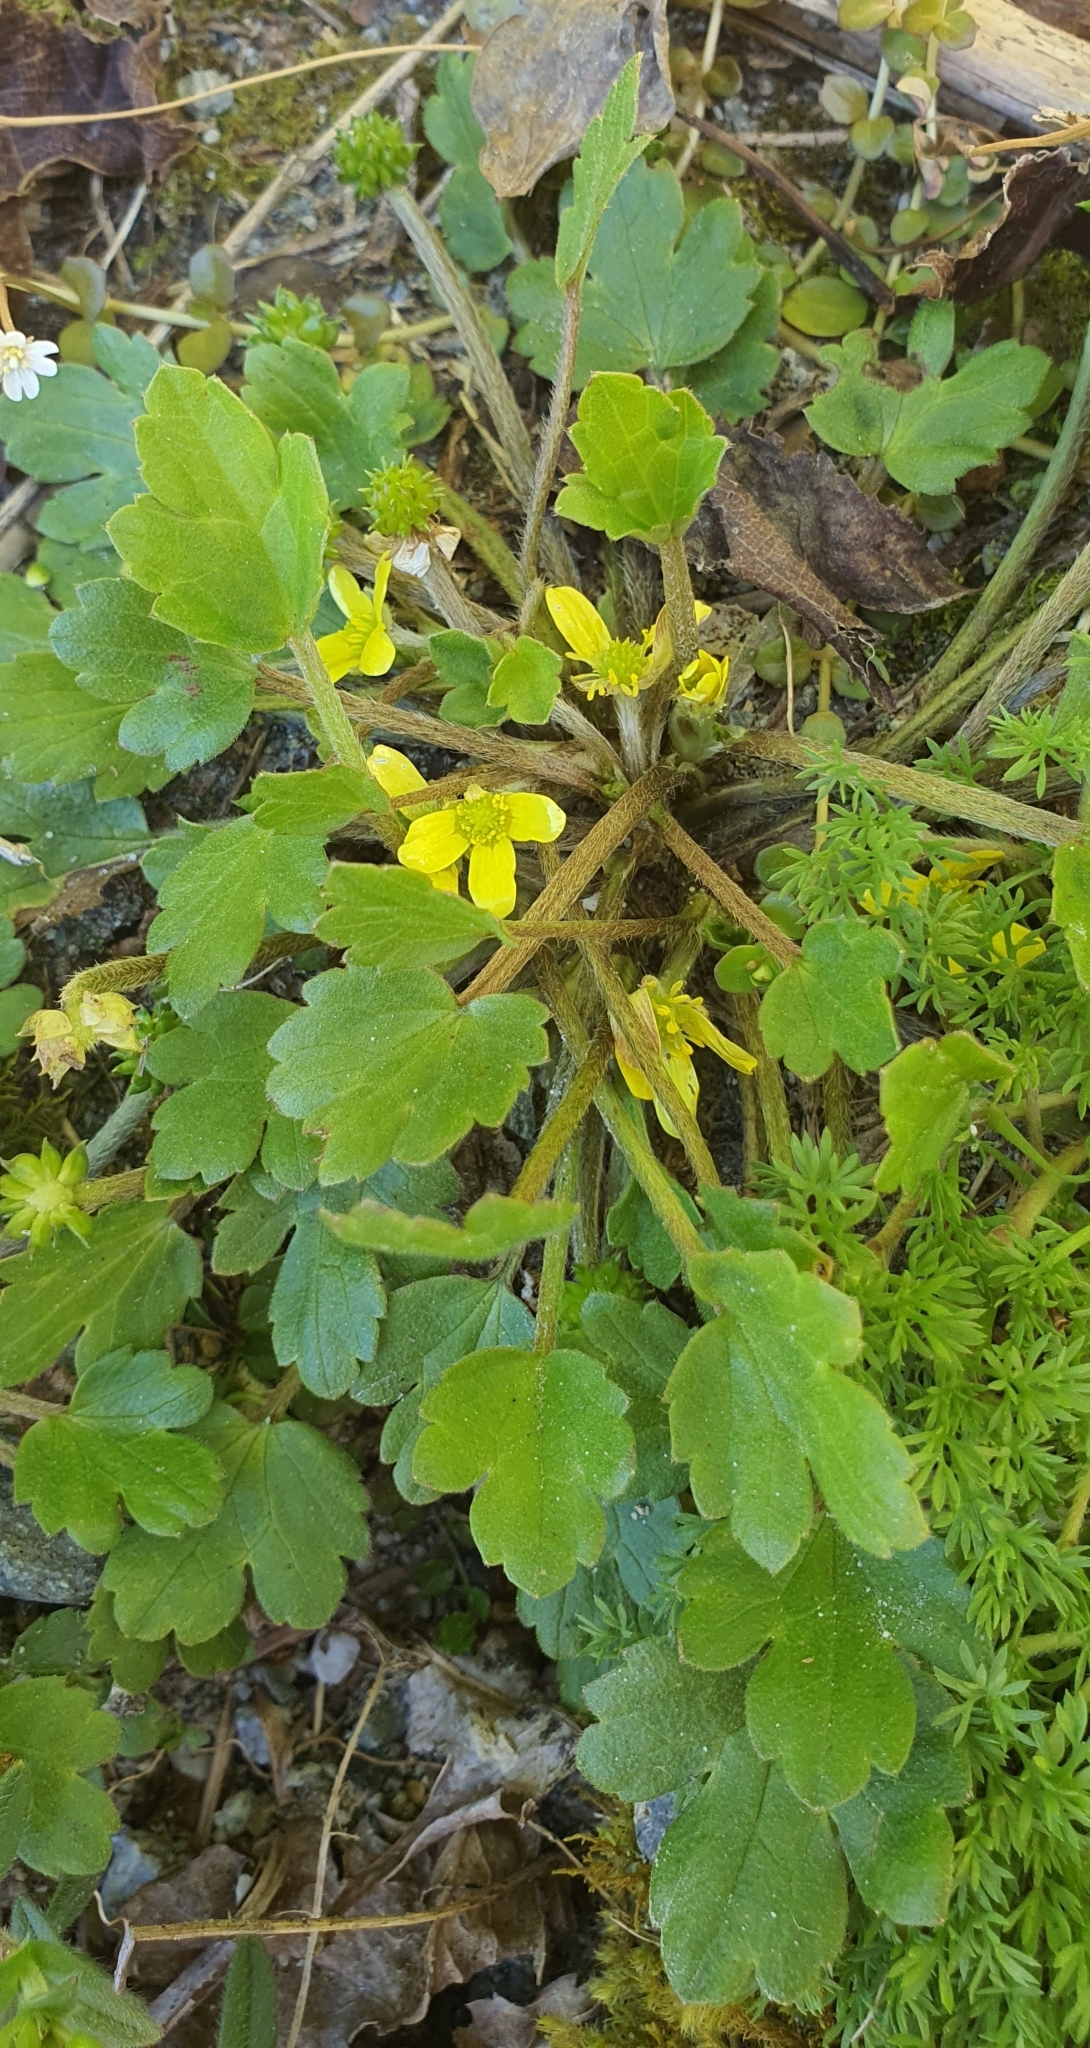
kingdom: Plantae
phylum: Tracheophyta
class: Magnoliopsida
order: Ranunculales
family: Ranunculaceae
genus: Ranunculus
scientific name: Ranunculus foliosus
